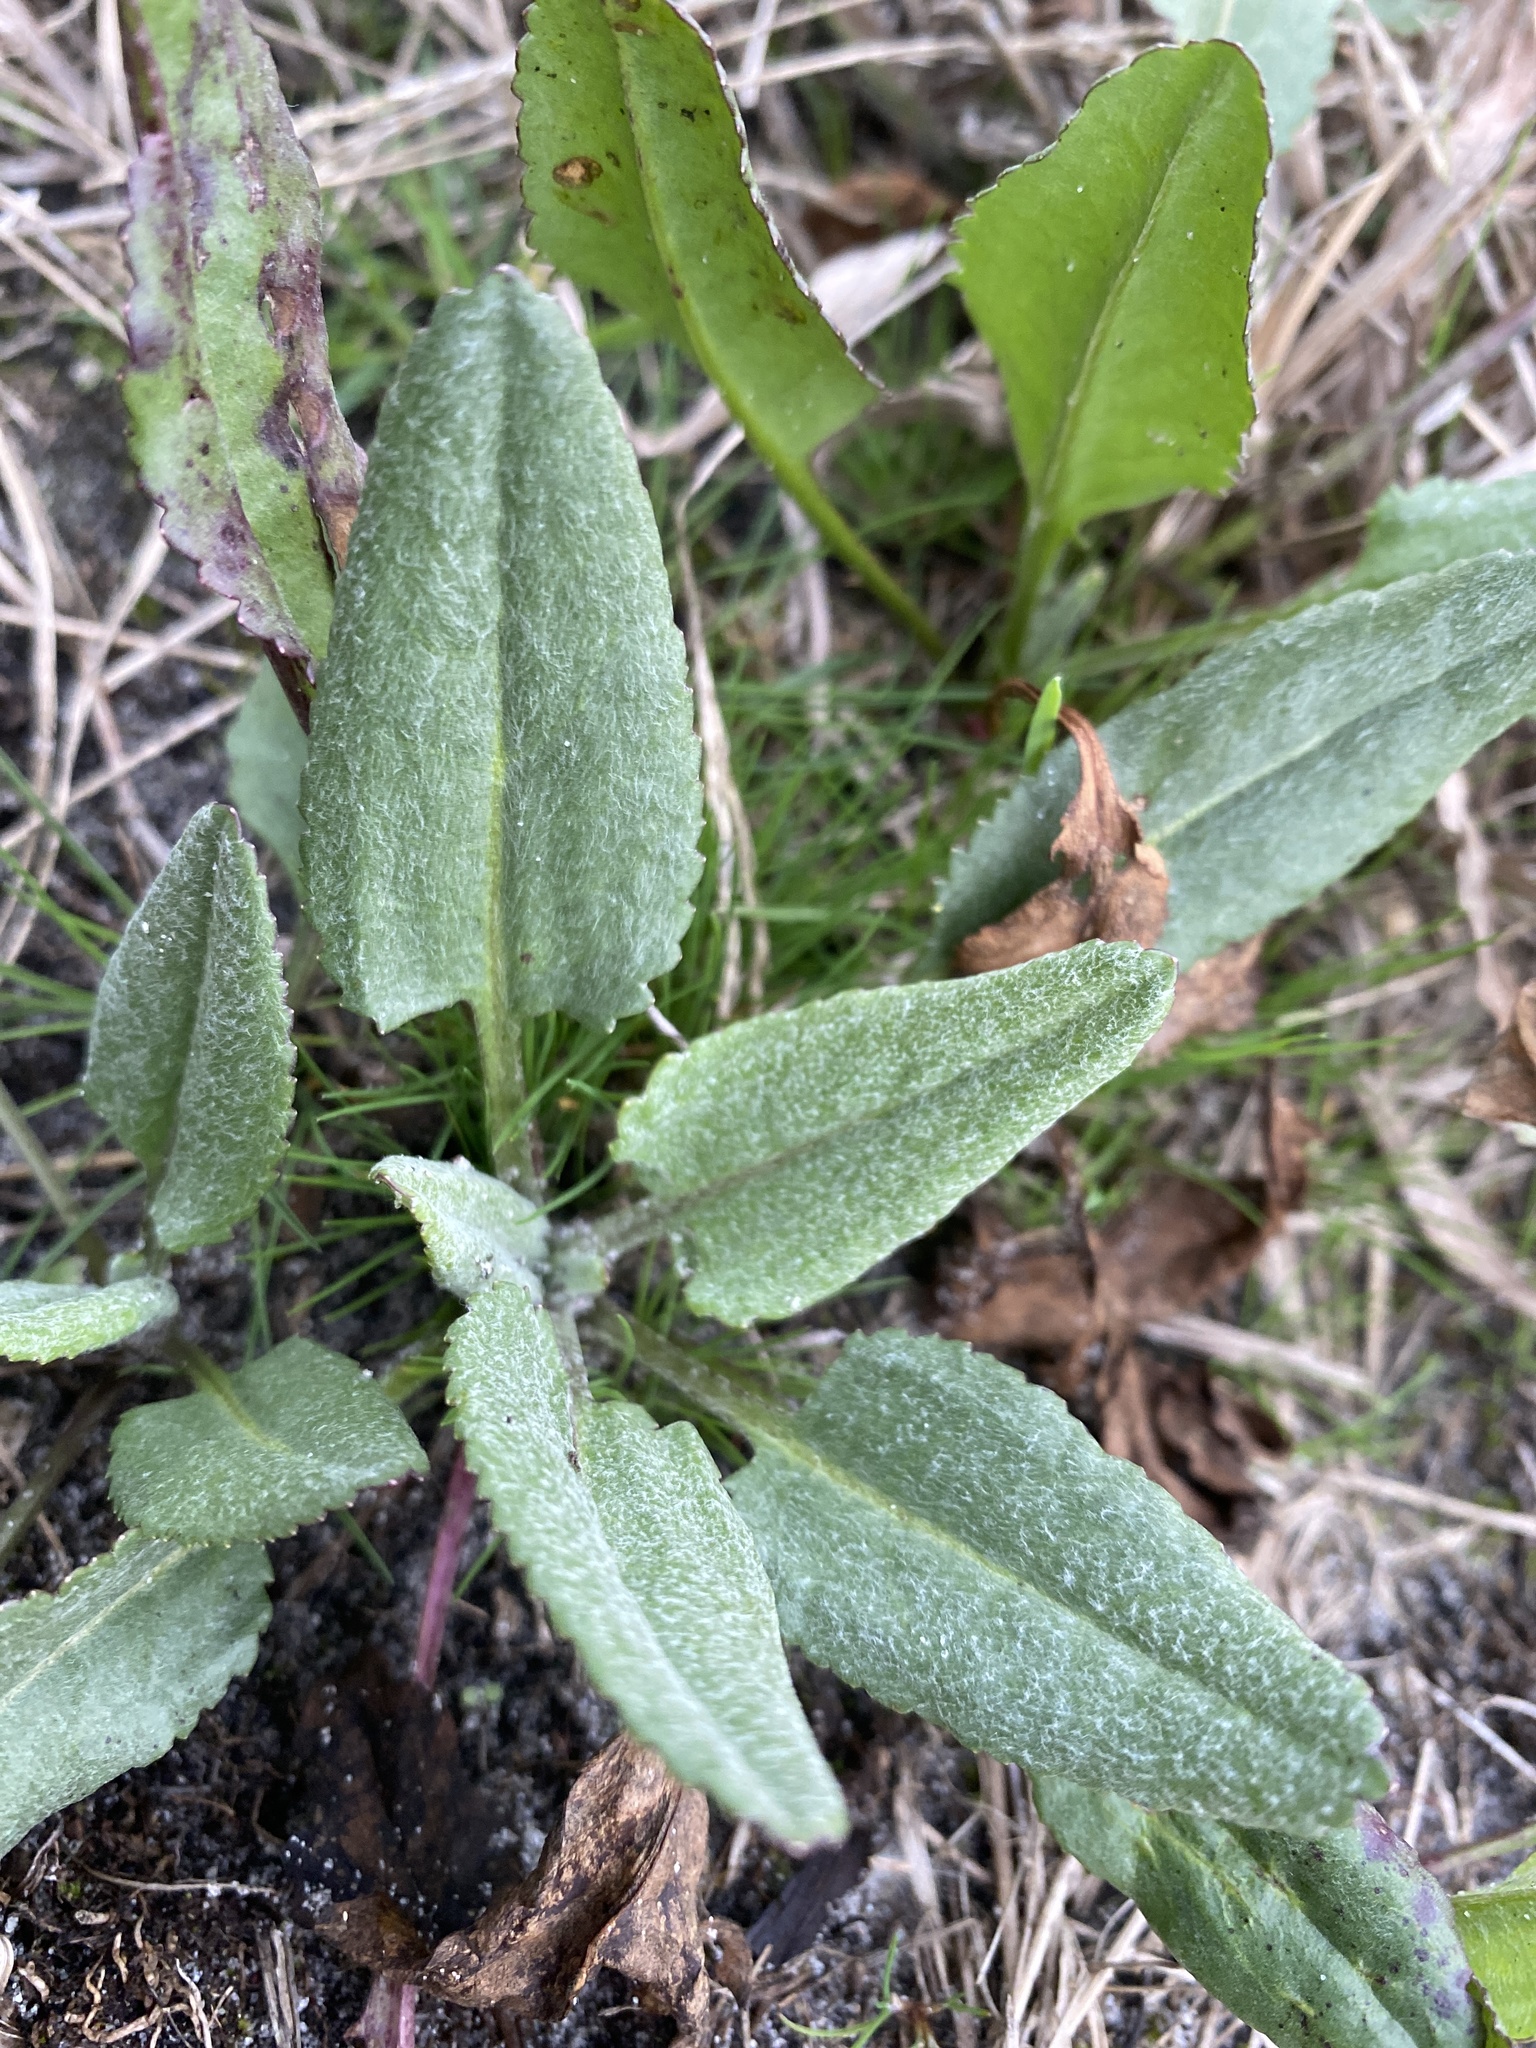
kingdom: Plantae
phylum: Tracheophyta
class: Magnoliopsida
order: Asterales
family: Asteraceae
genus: Packera
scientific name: Packera dubia
